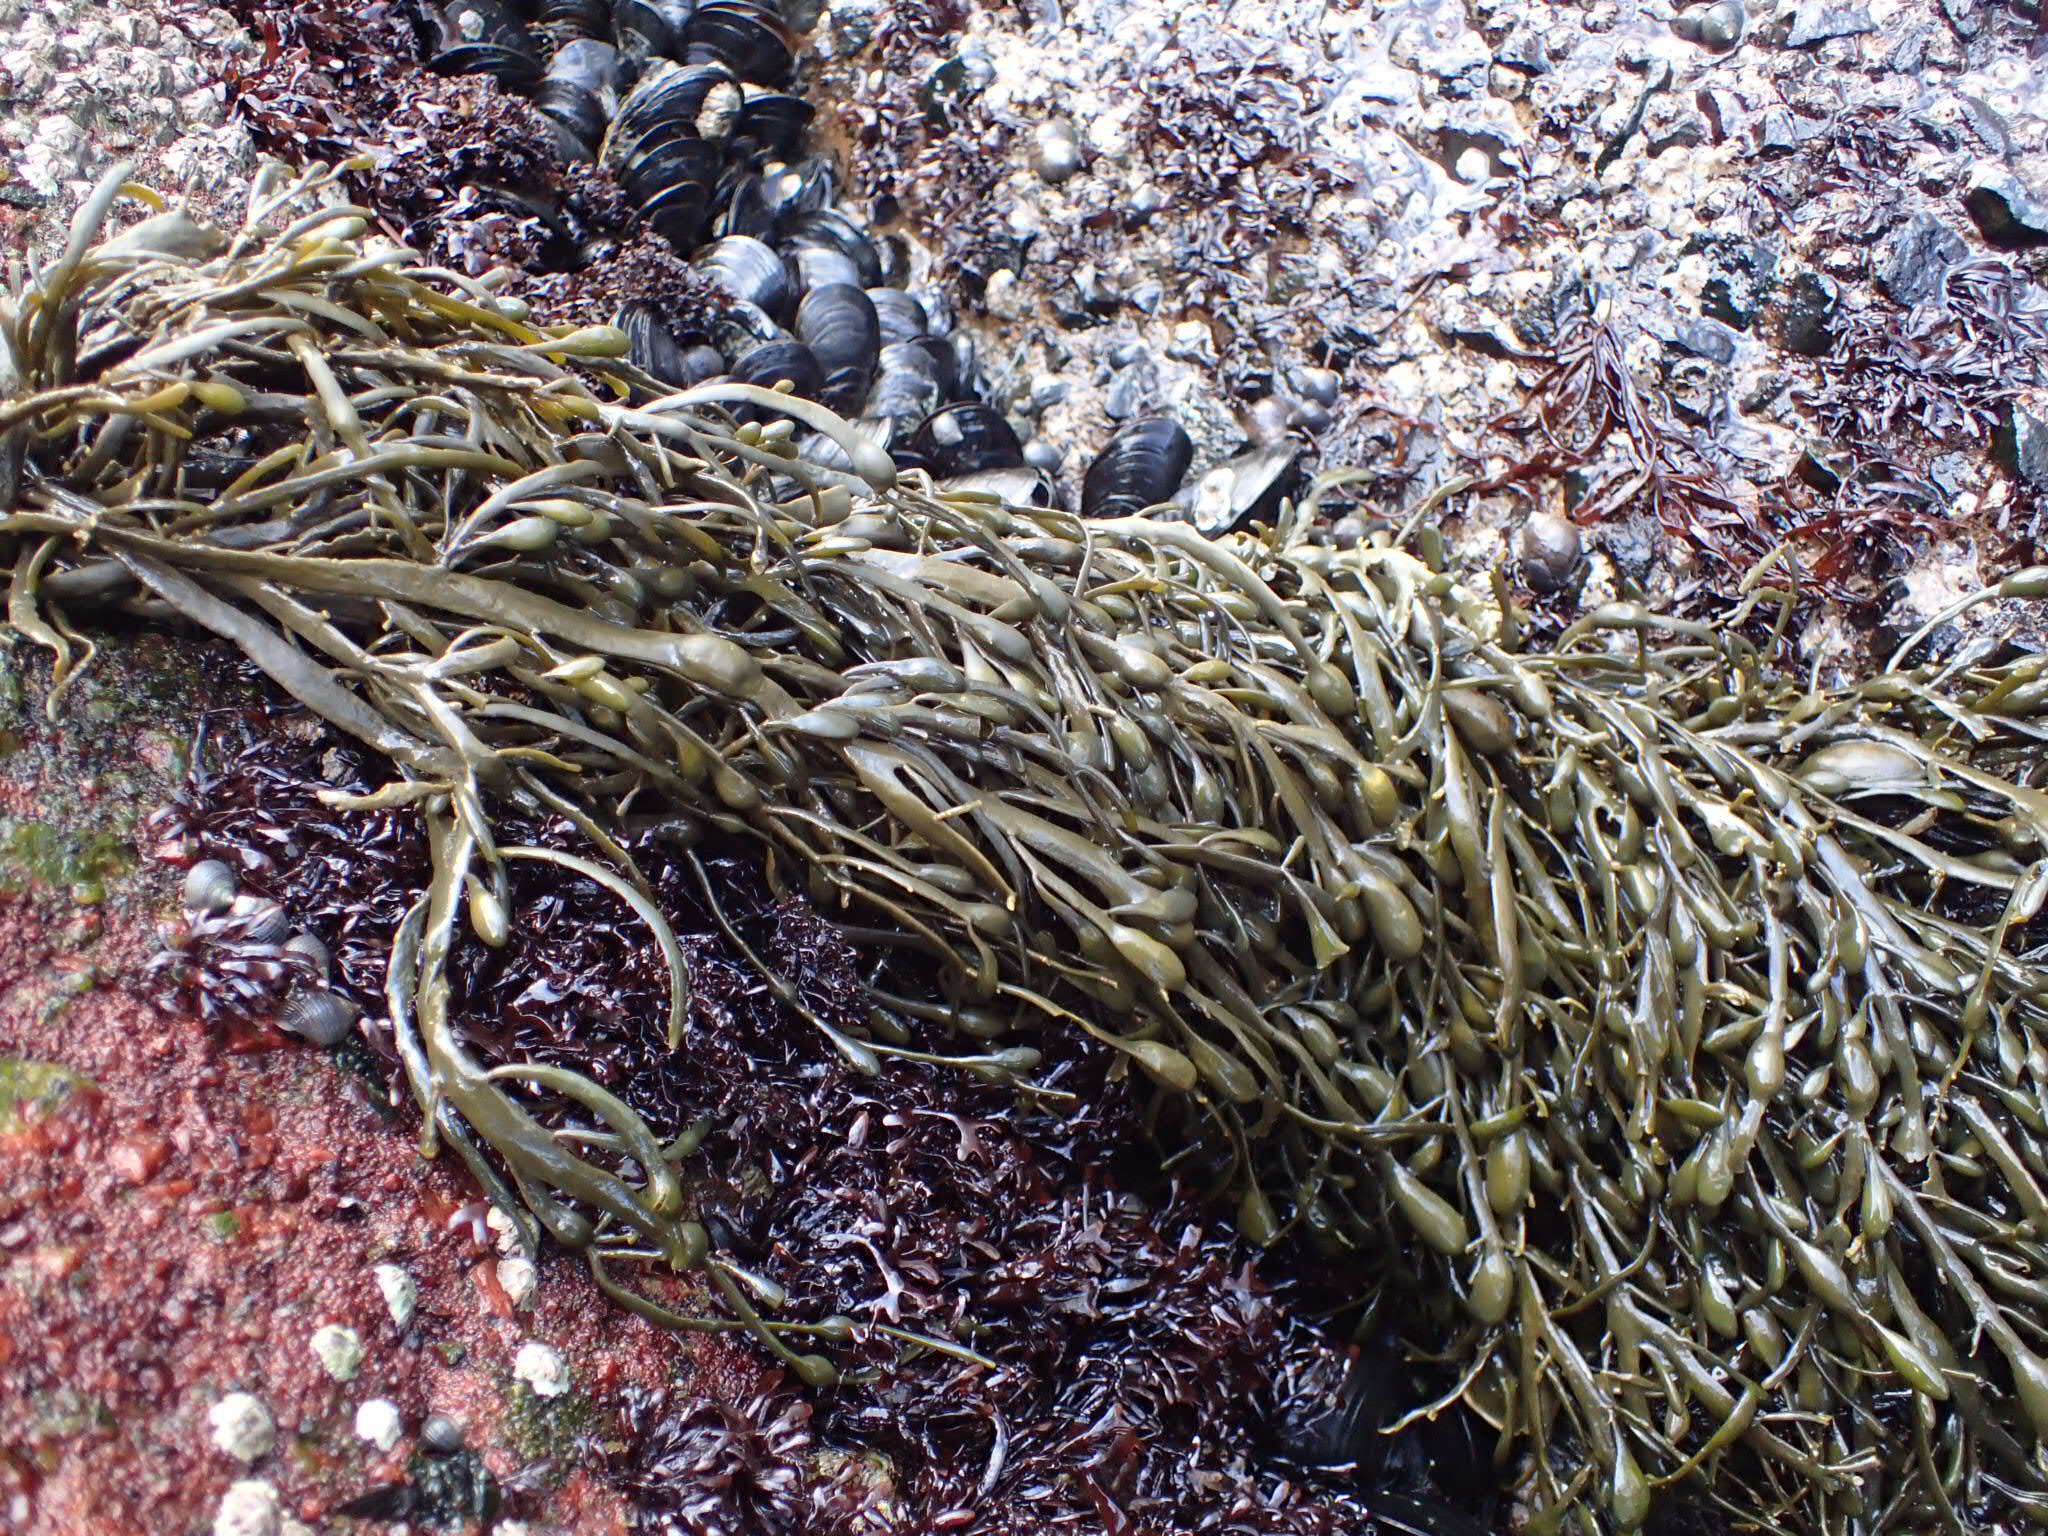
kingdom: Chromista
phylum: Ochrophyta
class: Phaeophyceae
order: Fucales
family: Fucaceae
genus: Ascophyllum
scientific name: Ascophyllum nodosum
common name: Knotted wrack
